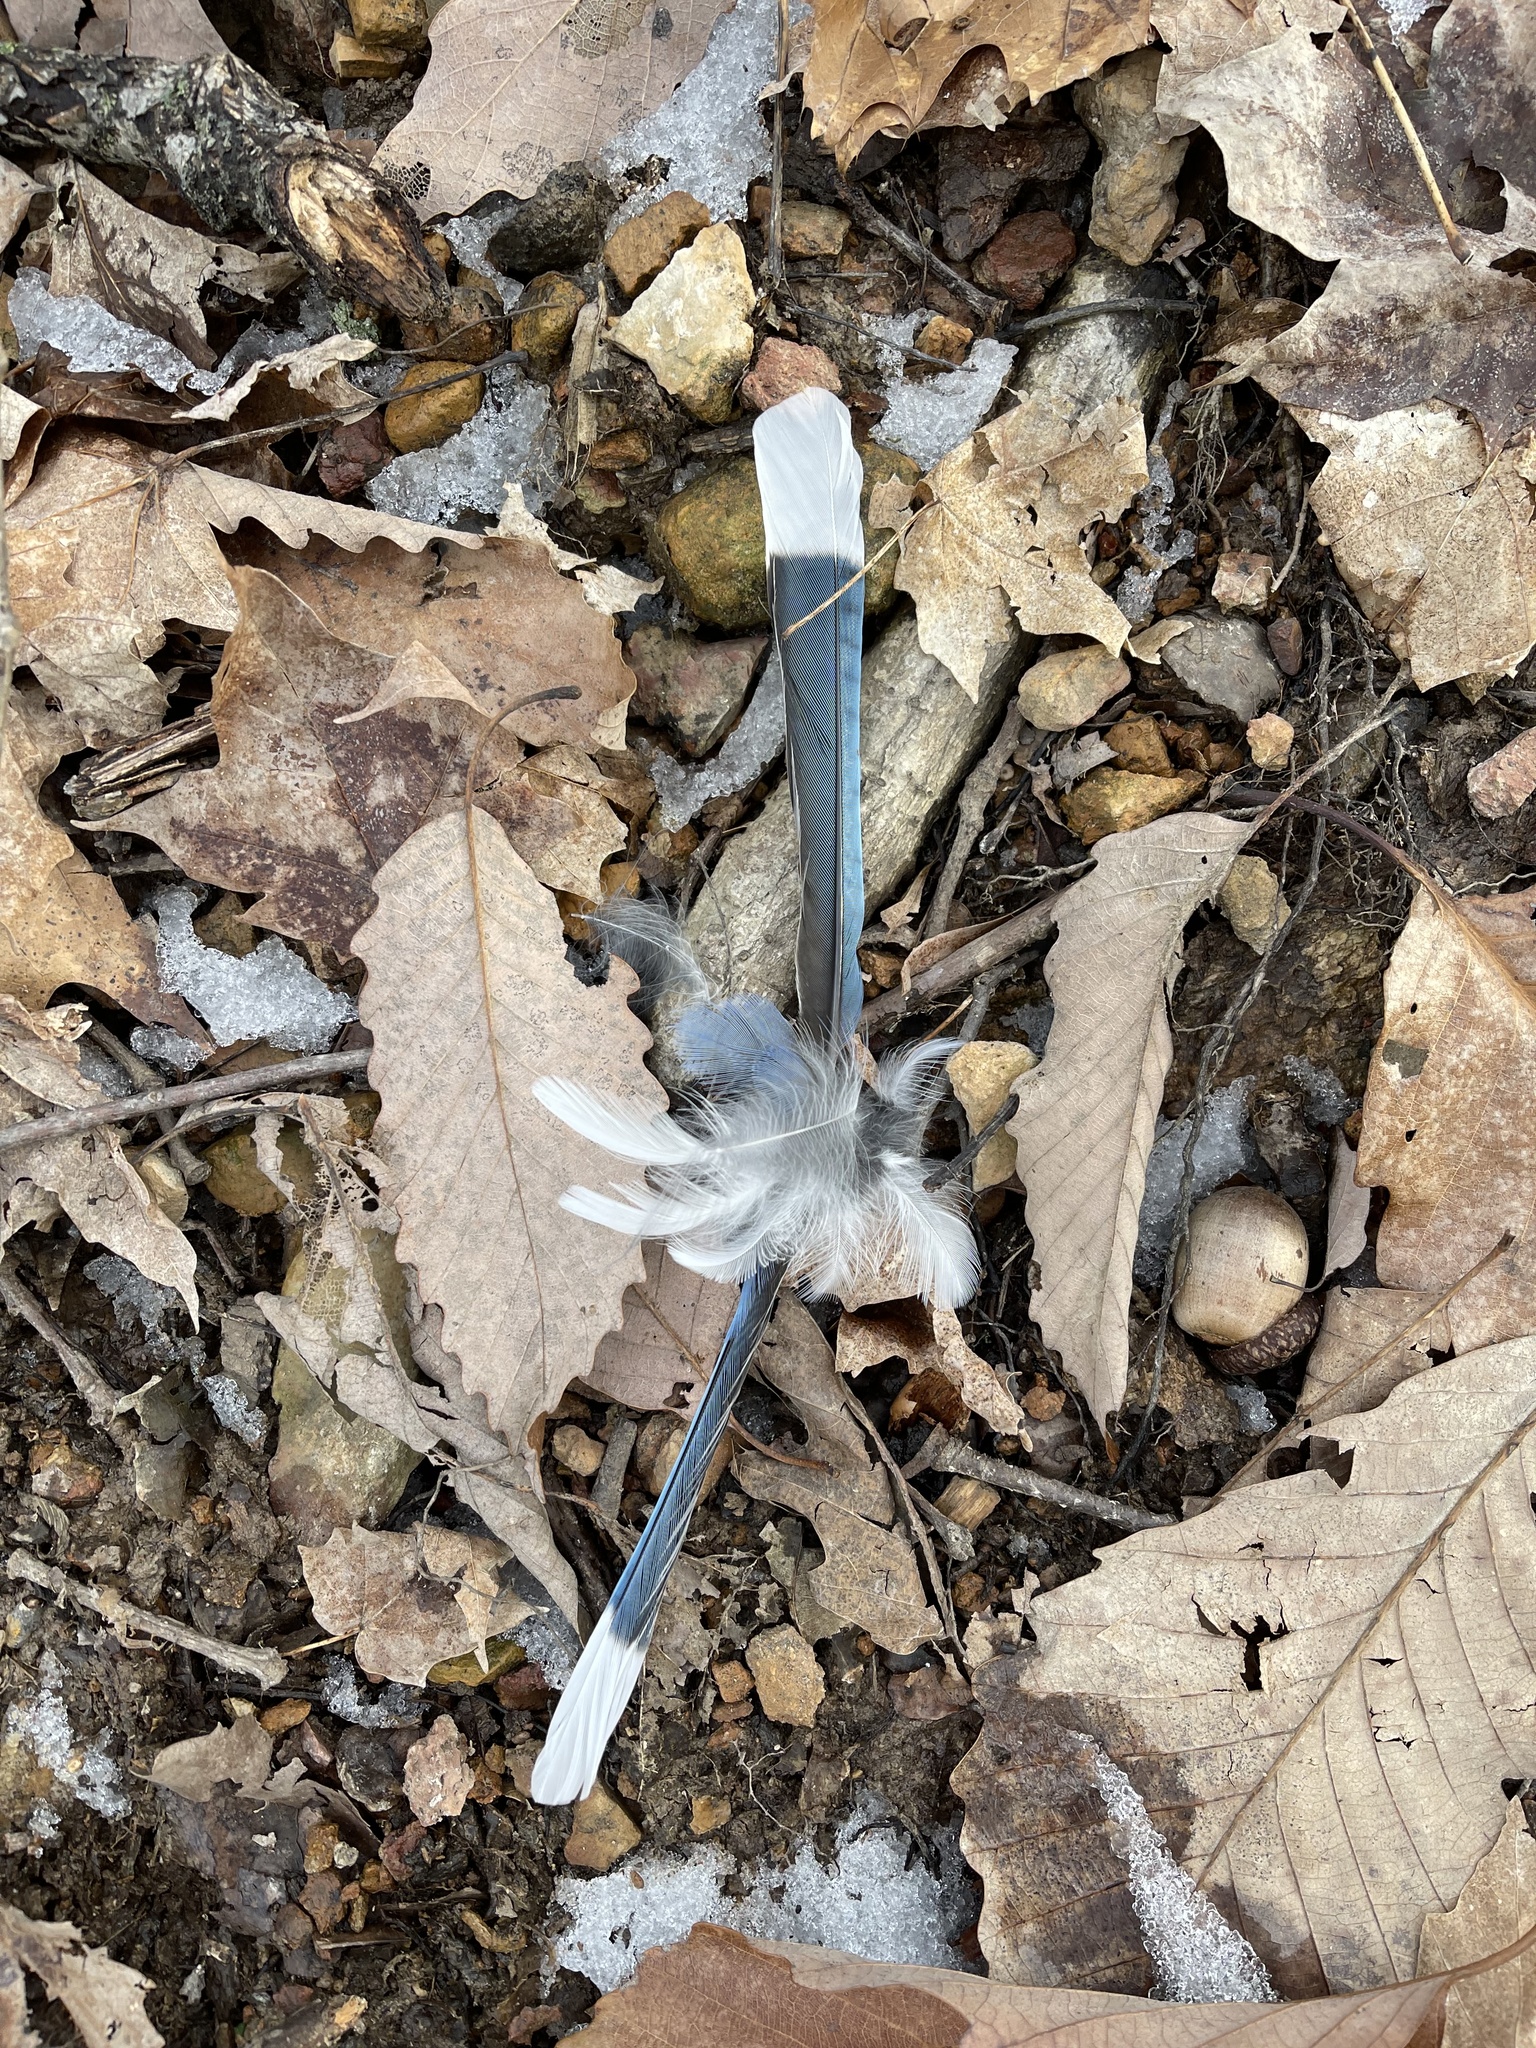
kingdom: Animalia
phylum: Chordata
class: Aves
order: Passeriformes
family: Corvidae
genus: Cyanocitta
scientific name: Cyanocitta cristata
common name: Blue jay
